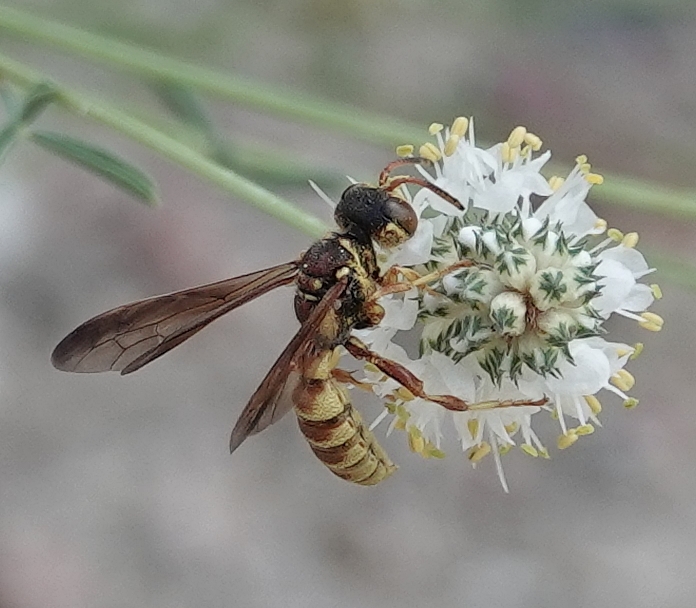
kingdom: Animalia
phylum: Arthropoda
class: Insecta
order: Hymenoptera
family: Crabronidae
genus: Cerceris
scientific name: Cerceris intricata
